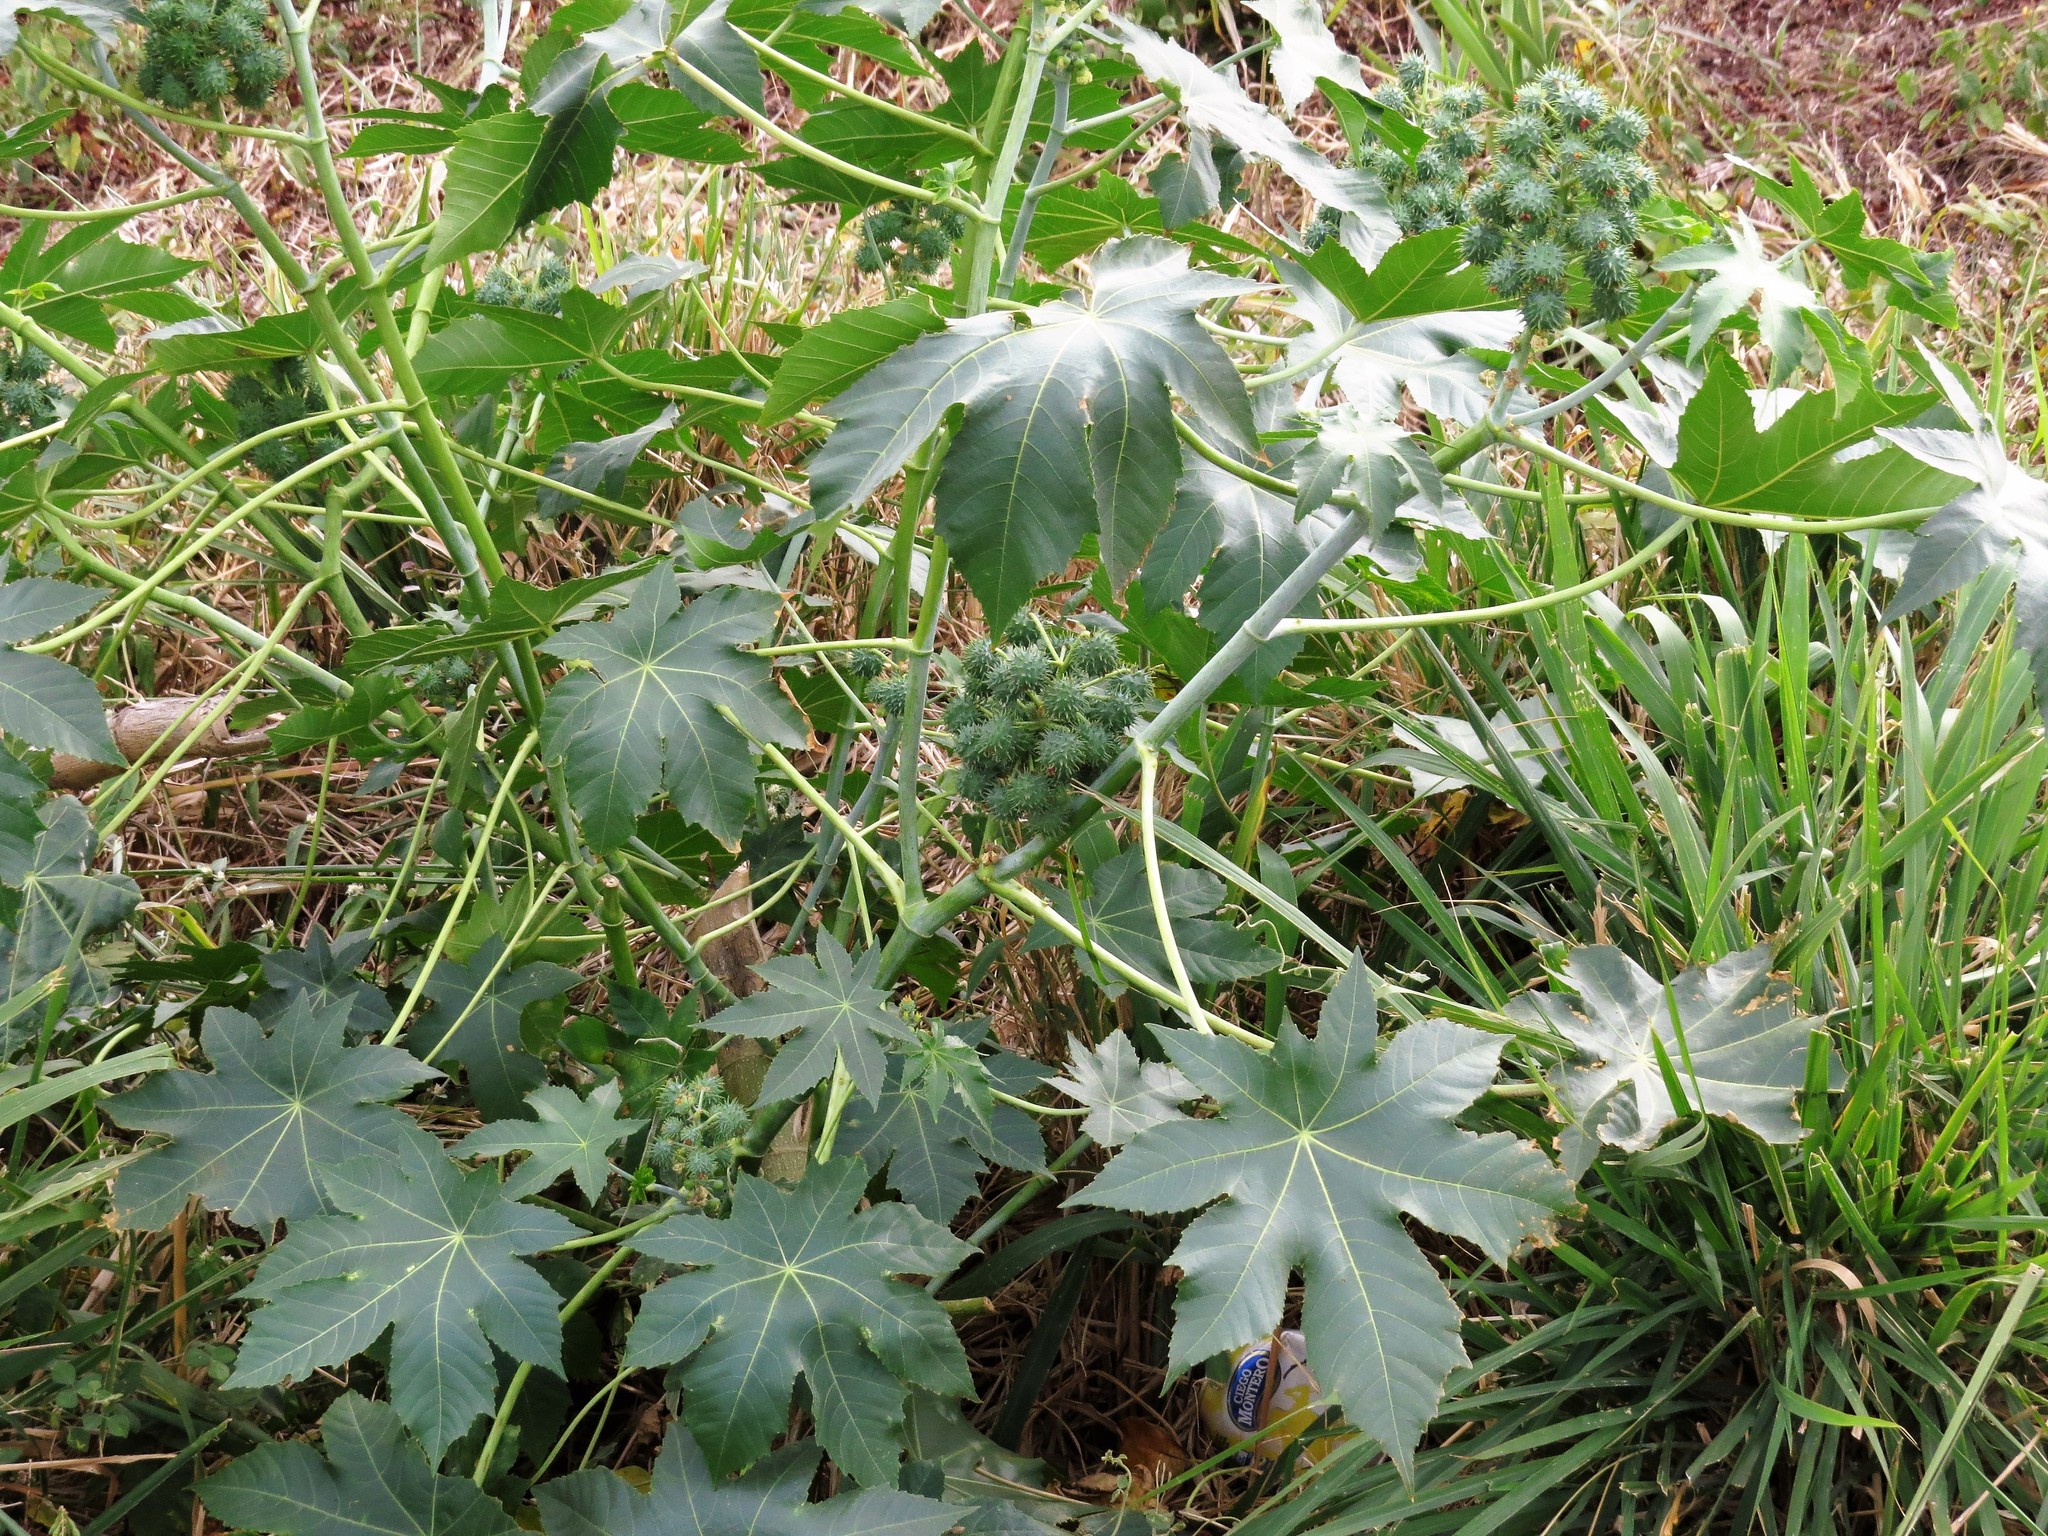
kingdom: Plantae
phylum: Tracheophyta
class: Magnoliopsida
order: Malpighiales
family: Euphorbiaceae
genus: Ricinus
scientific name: Ricinus communis
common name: Castor-oil-plant
